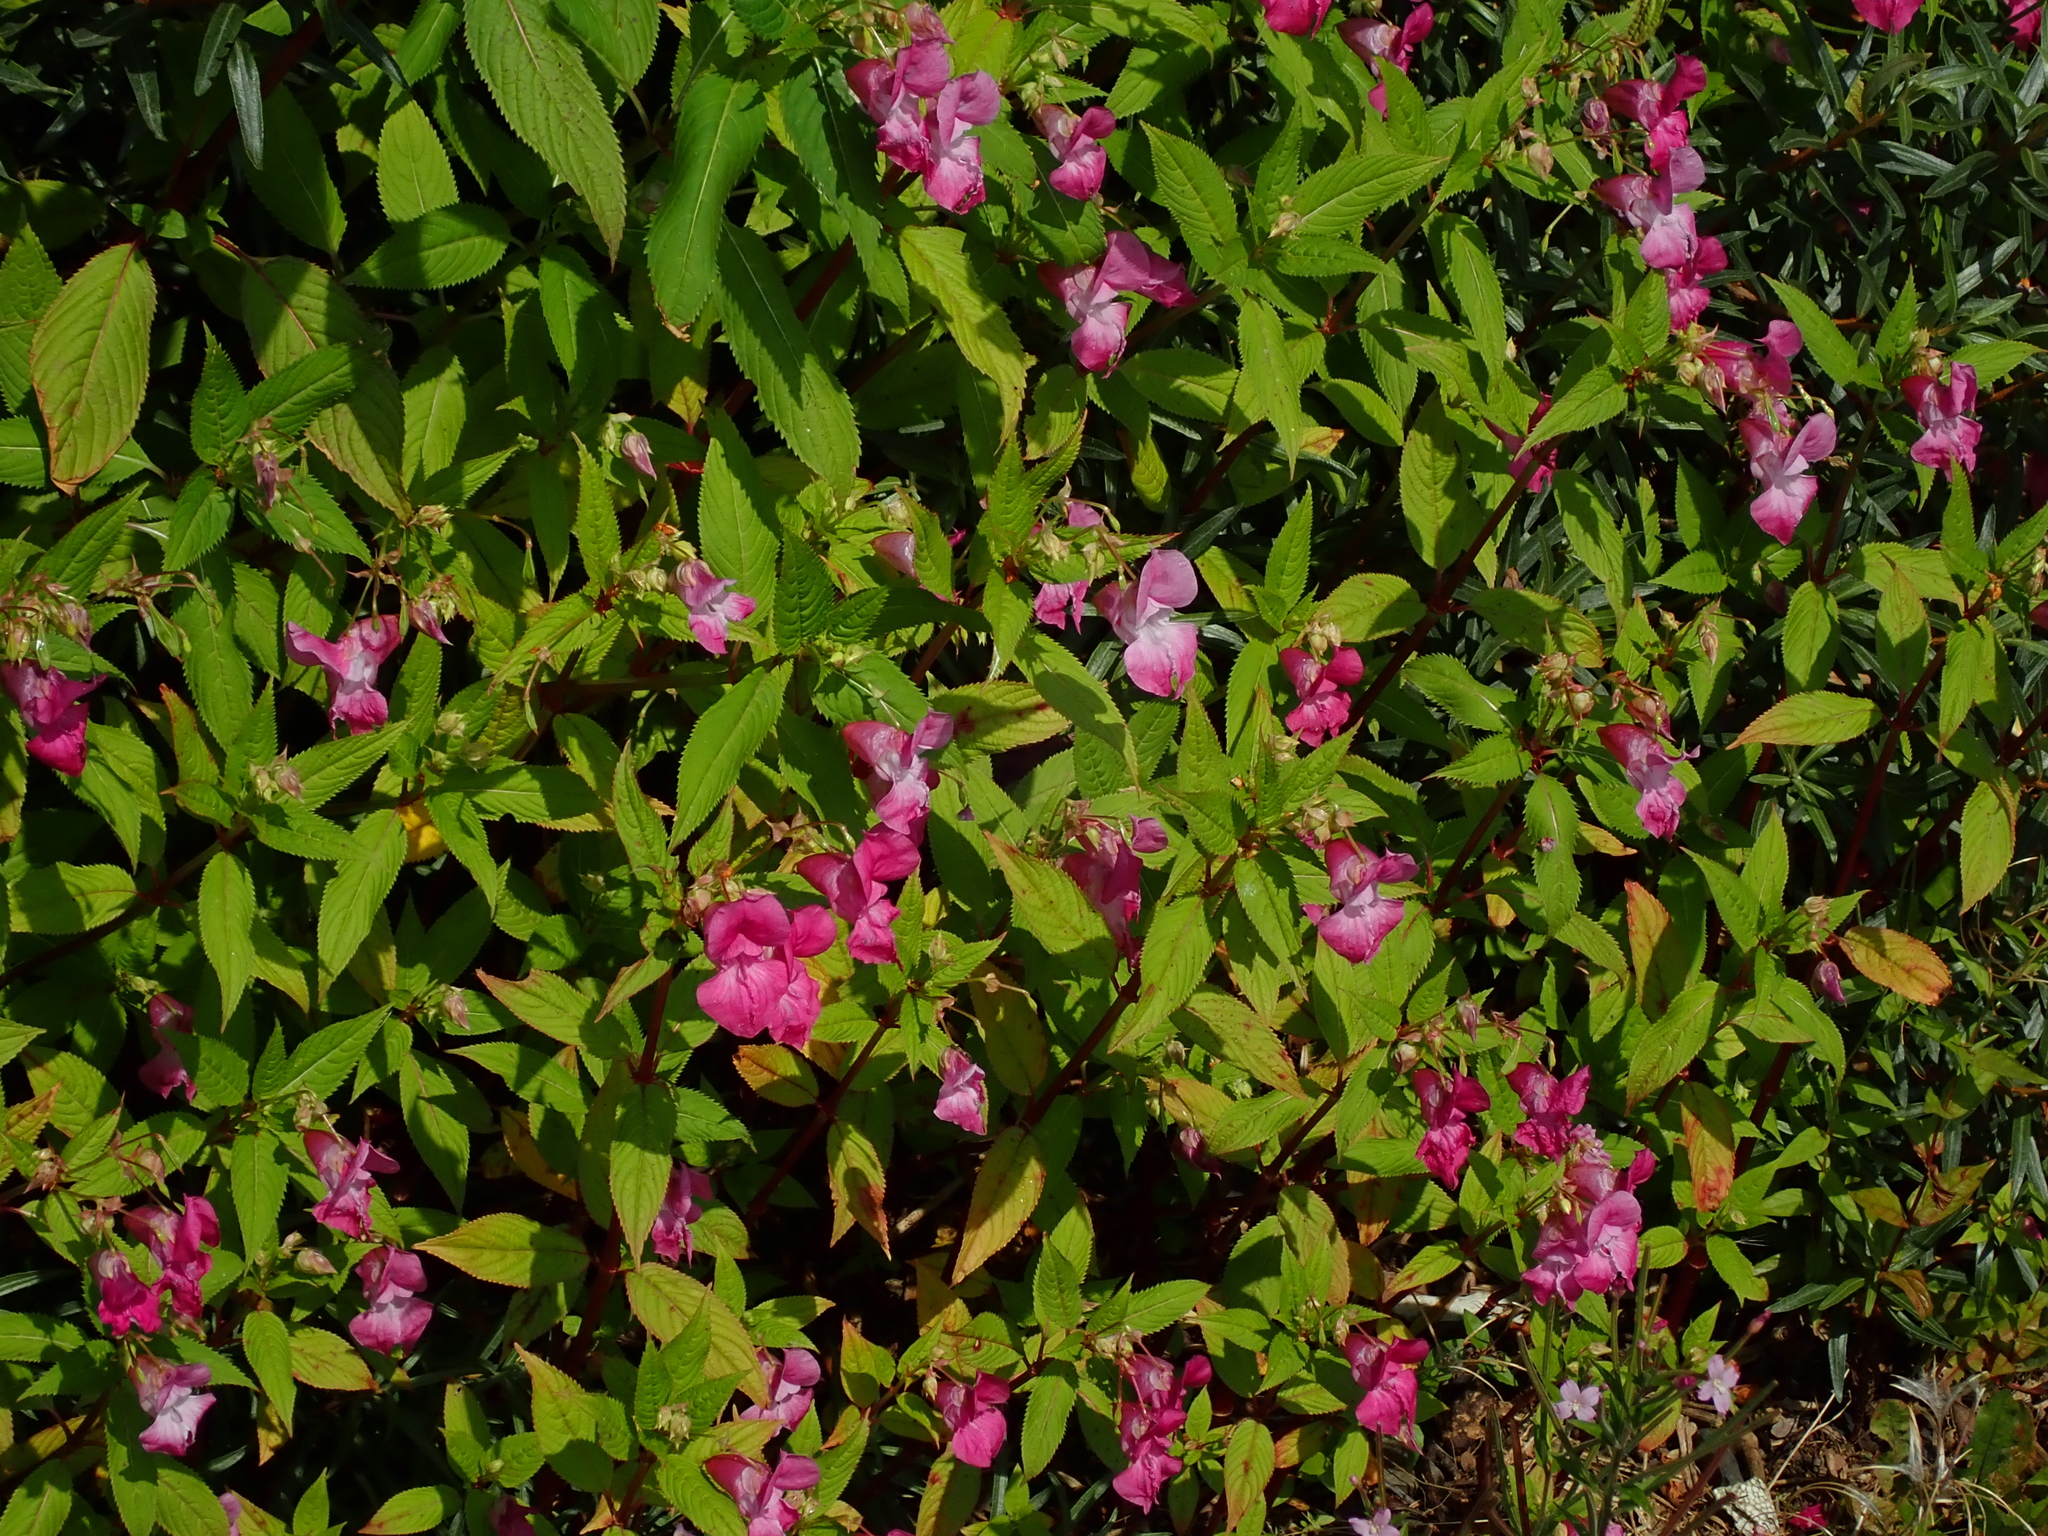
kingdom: Plantae
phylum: Tracheophyta
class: Magnoliopsida
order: Ericales
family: Balsaminaceae
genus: Impatiens
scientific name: Impatiens glandulifera
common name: Himalayan balsam
